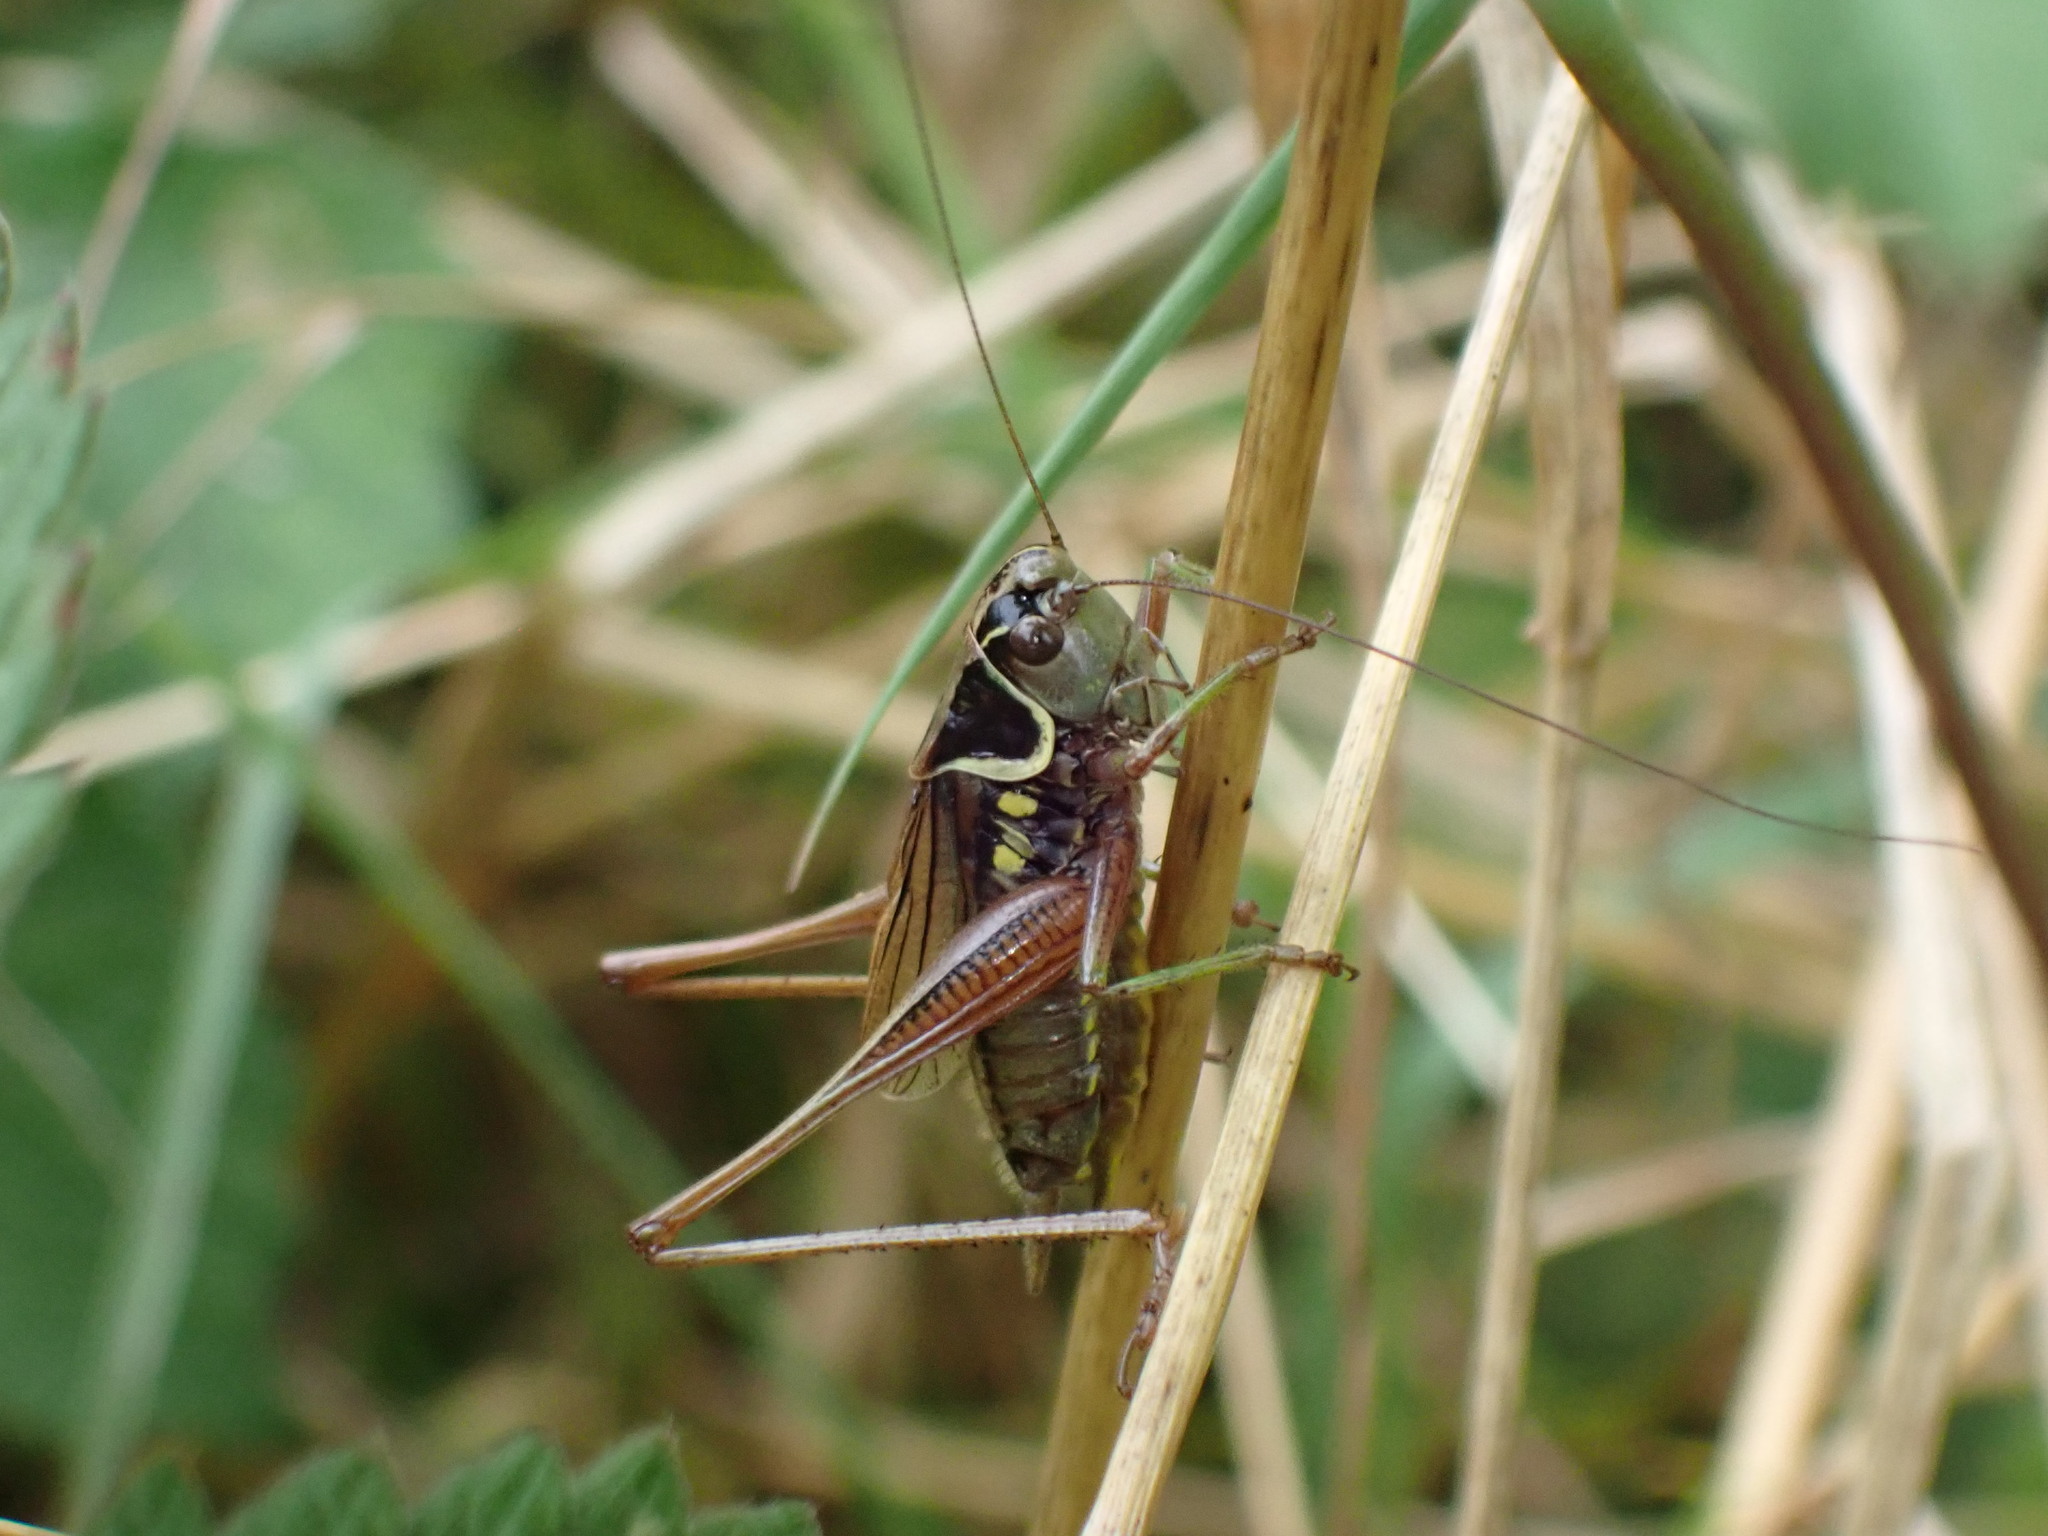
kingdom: Animalia
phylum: Arthropoda
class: Insecta
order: Orthoptera
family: Tettigoniidae
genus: Roeseliana
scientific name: Roeseliana roeselii
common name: Roesel's bush cricket
